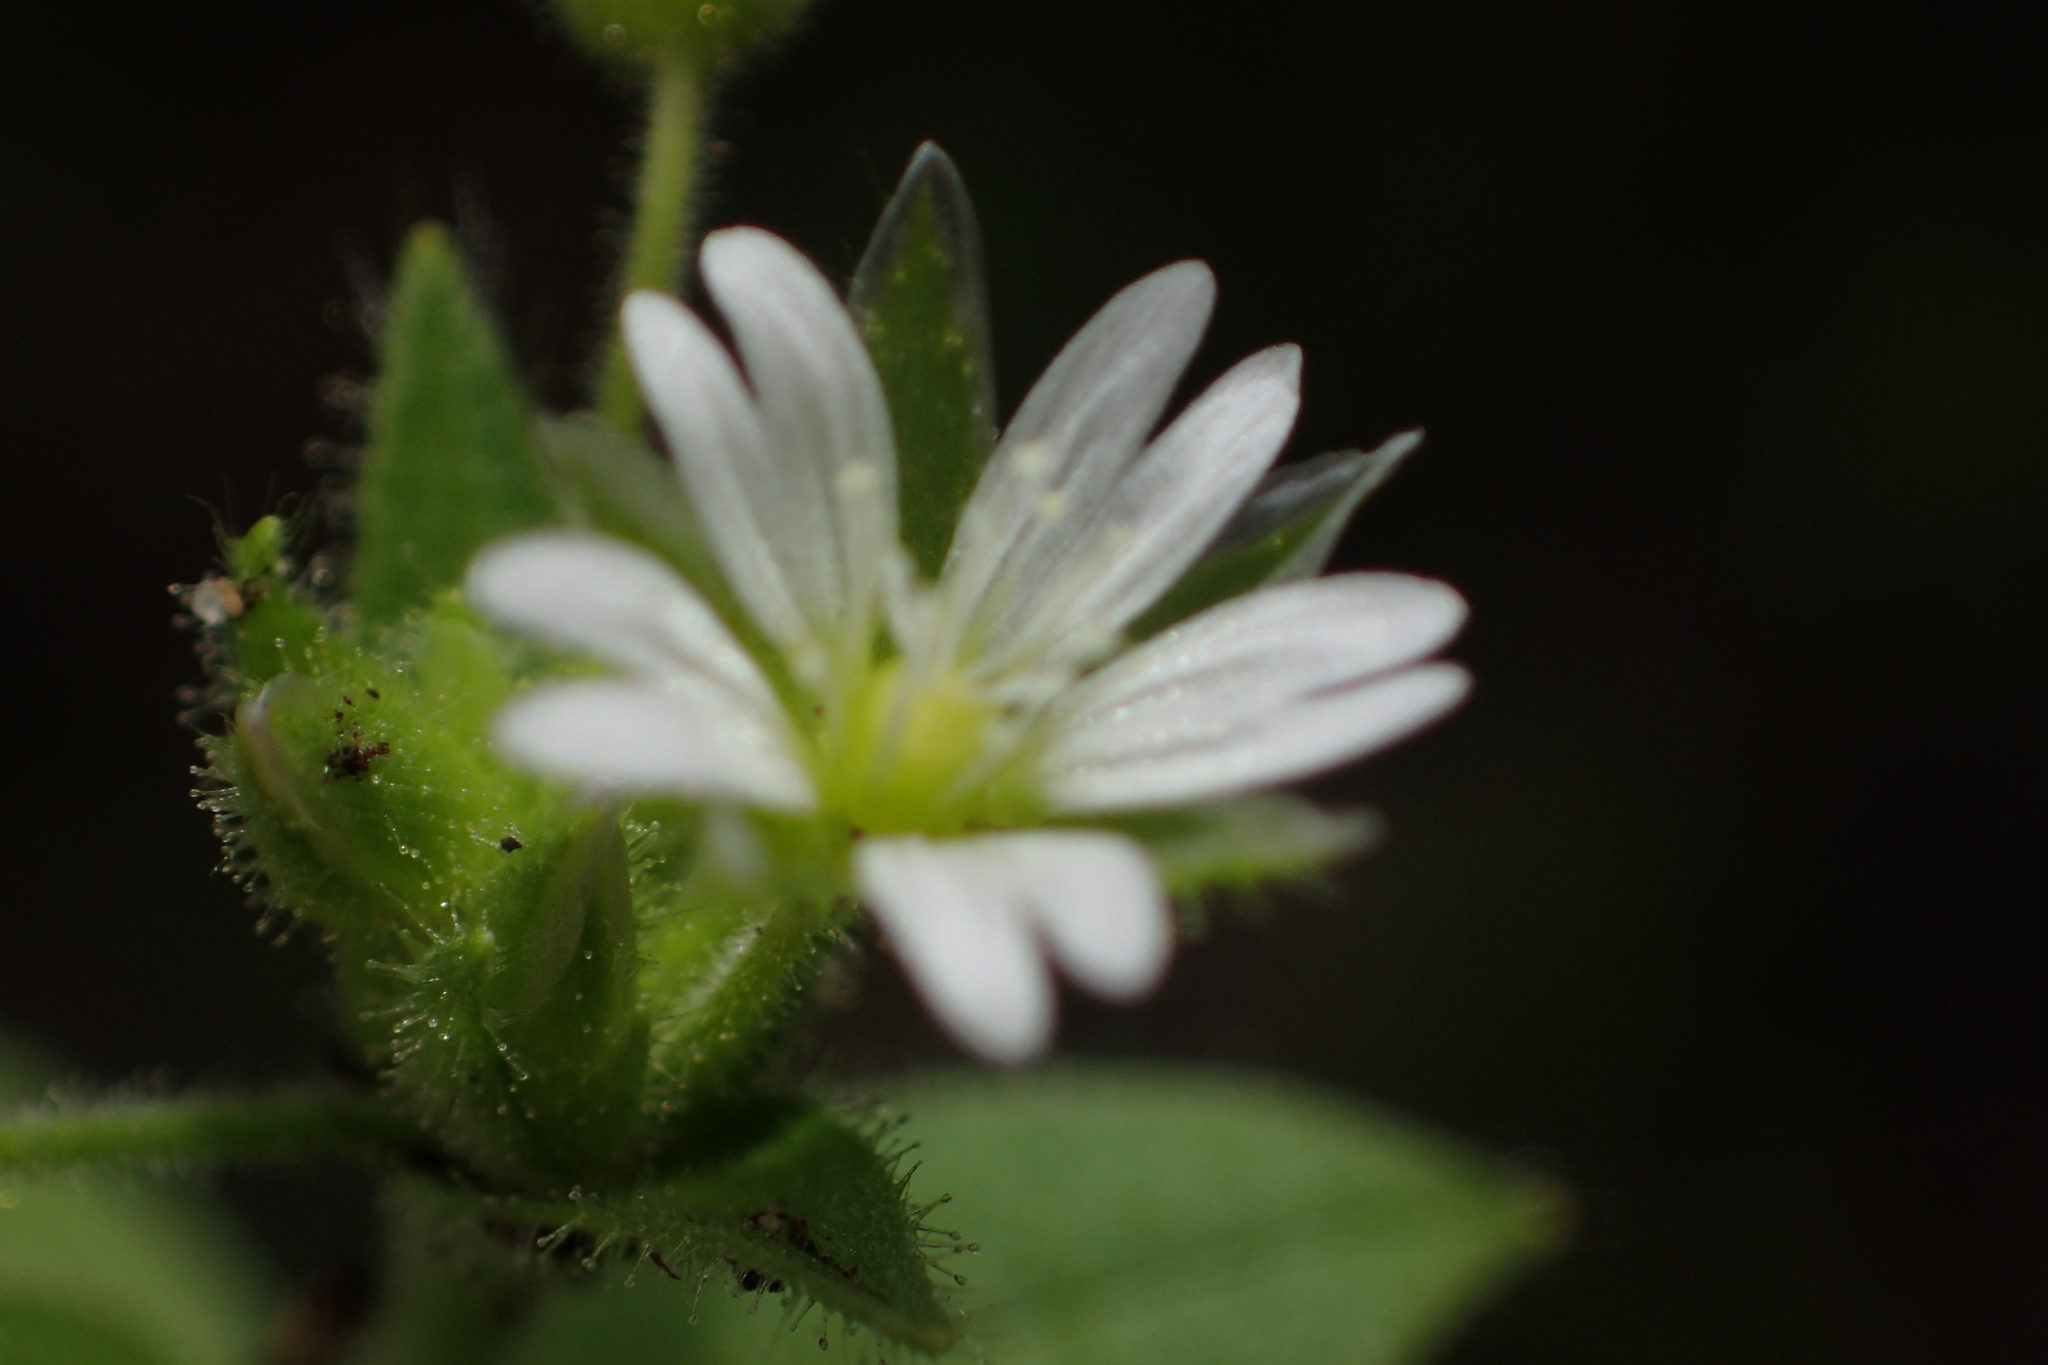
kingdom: Plantae
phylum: Tracheophyta
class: Magnoliopsida
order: Caryophyllales
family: Caryophyllaceae
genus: Cerastium
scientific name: Cerastium glomeratum
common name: Sticky chickweed
